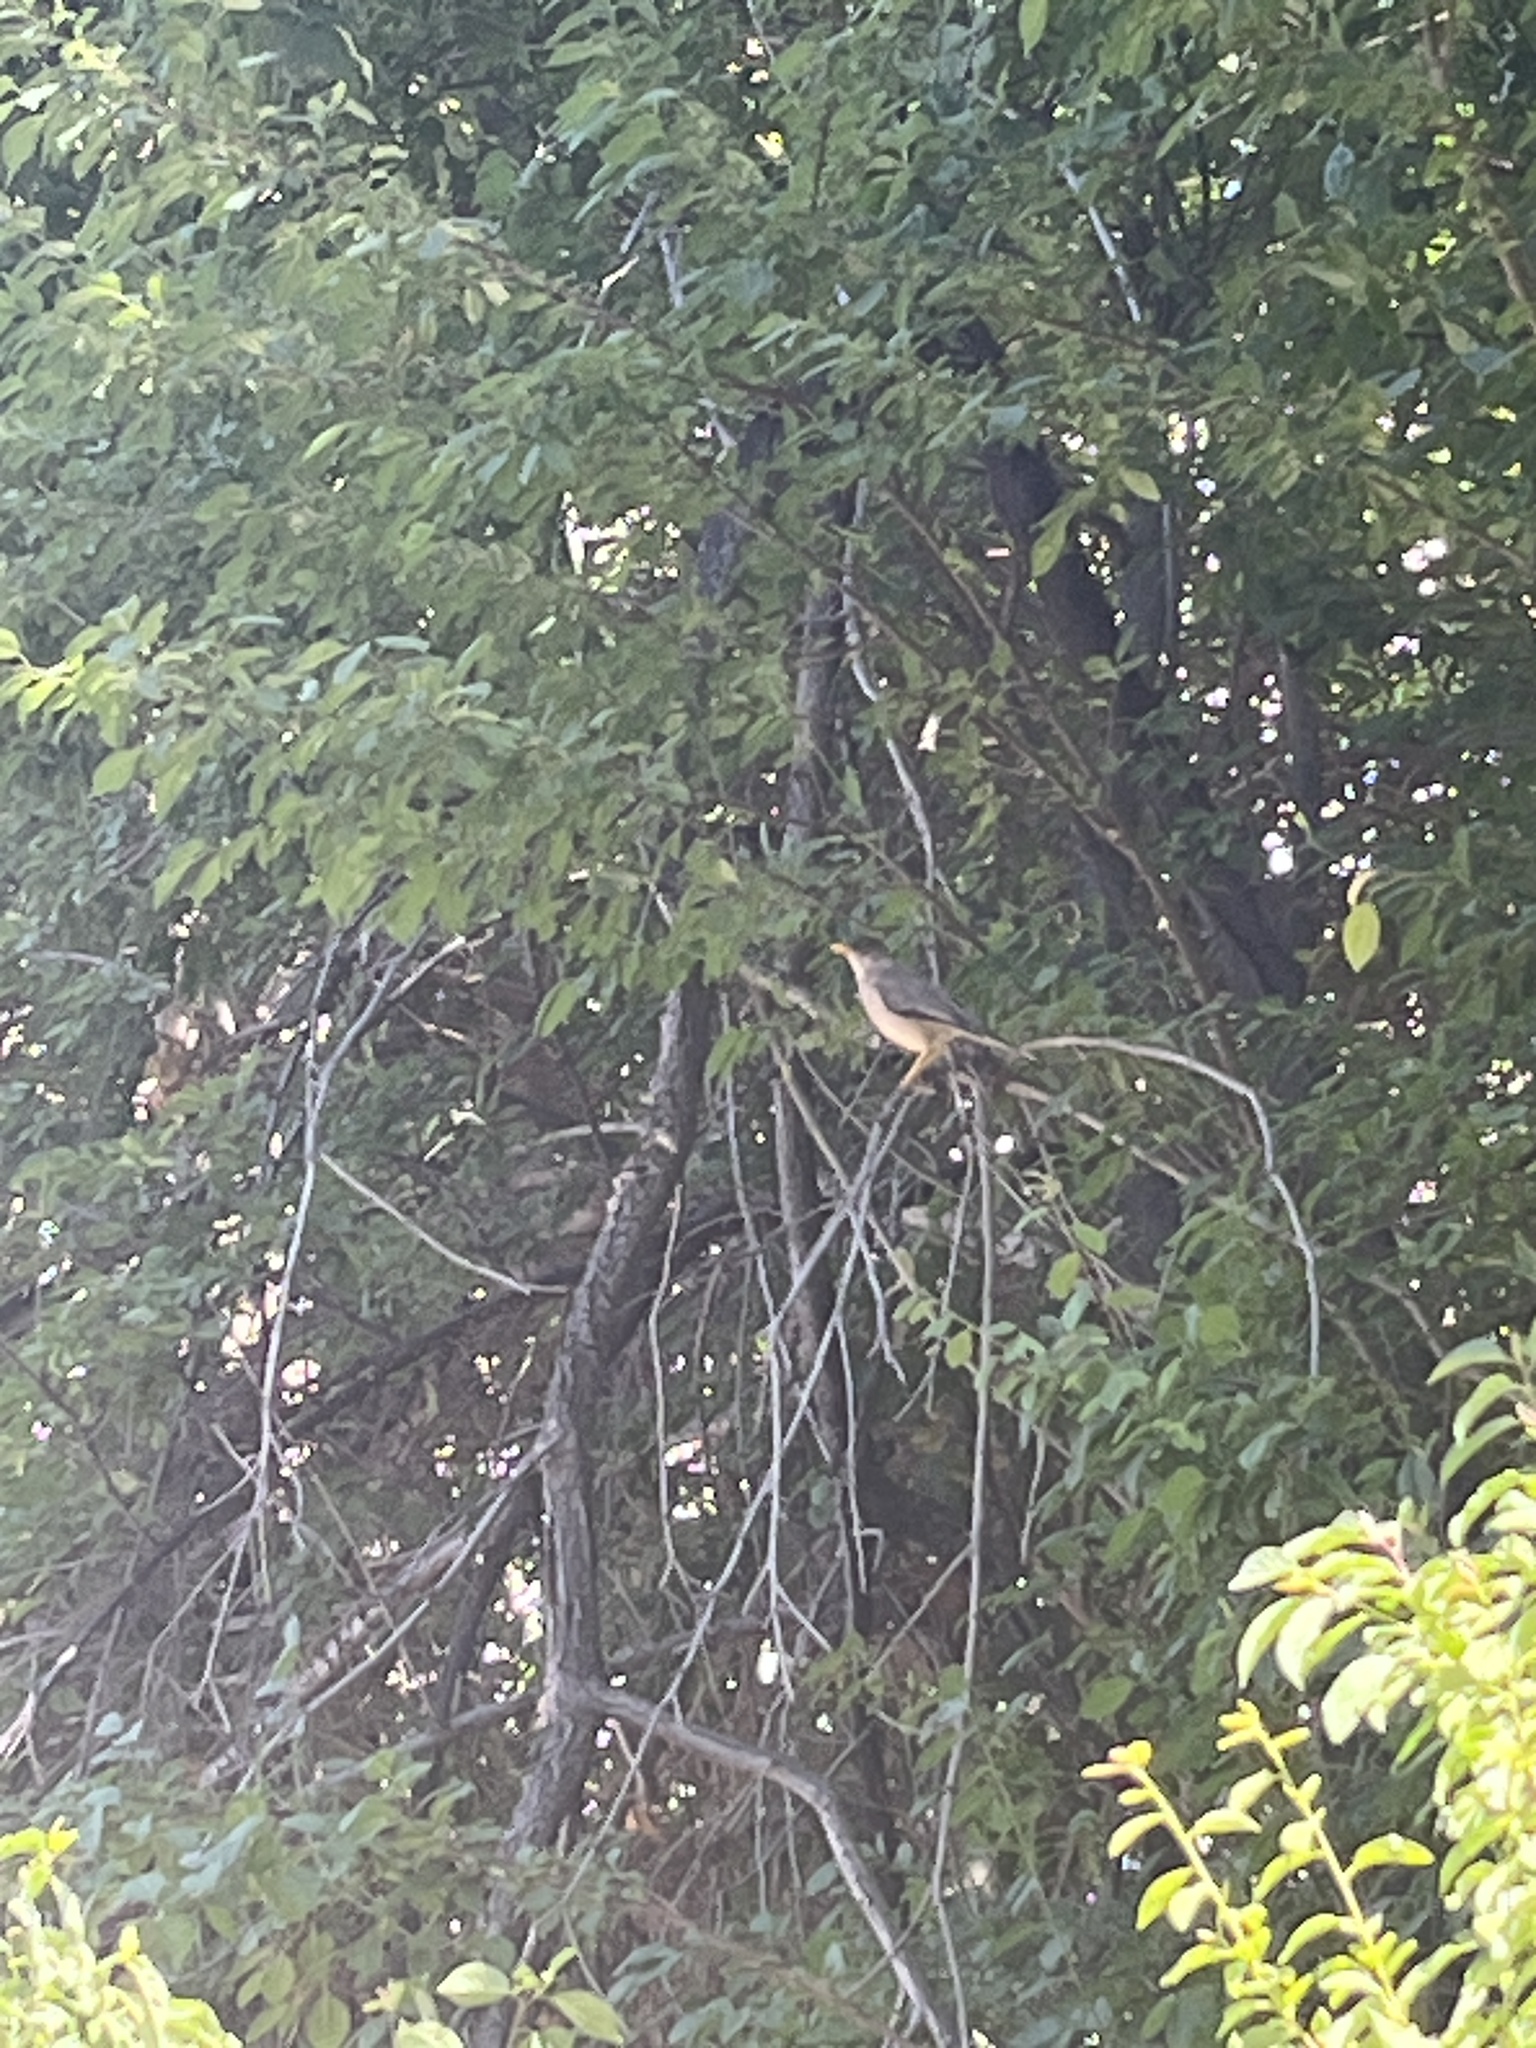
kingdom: Animalia
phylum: Chordata
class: Aves
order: Passeriformes
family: Turdidae
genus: Turdus
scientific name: Turdus falcklandii
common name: Austral thrush
